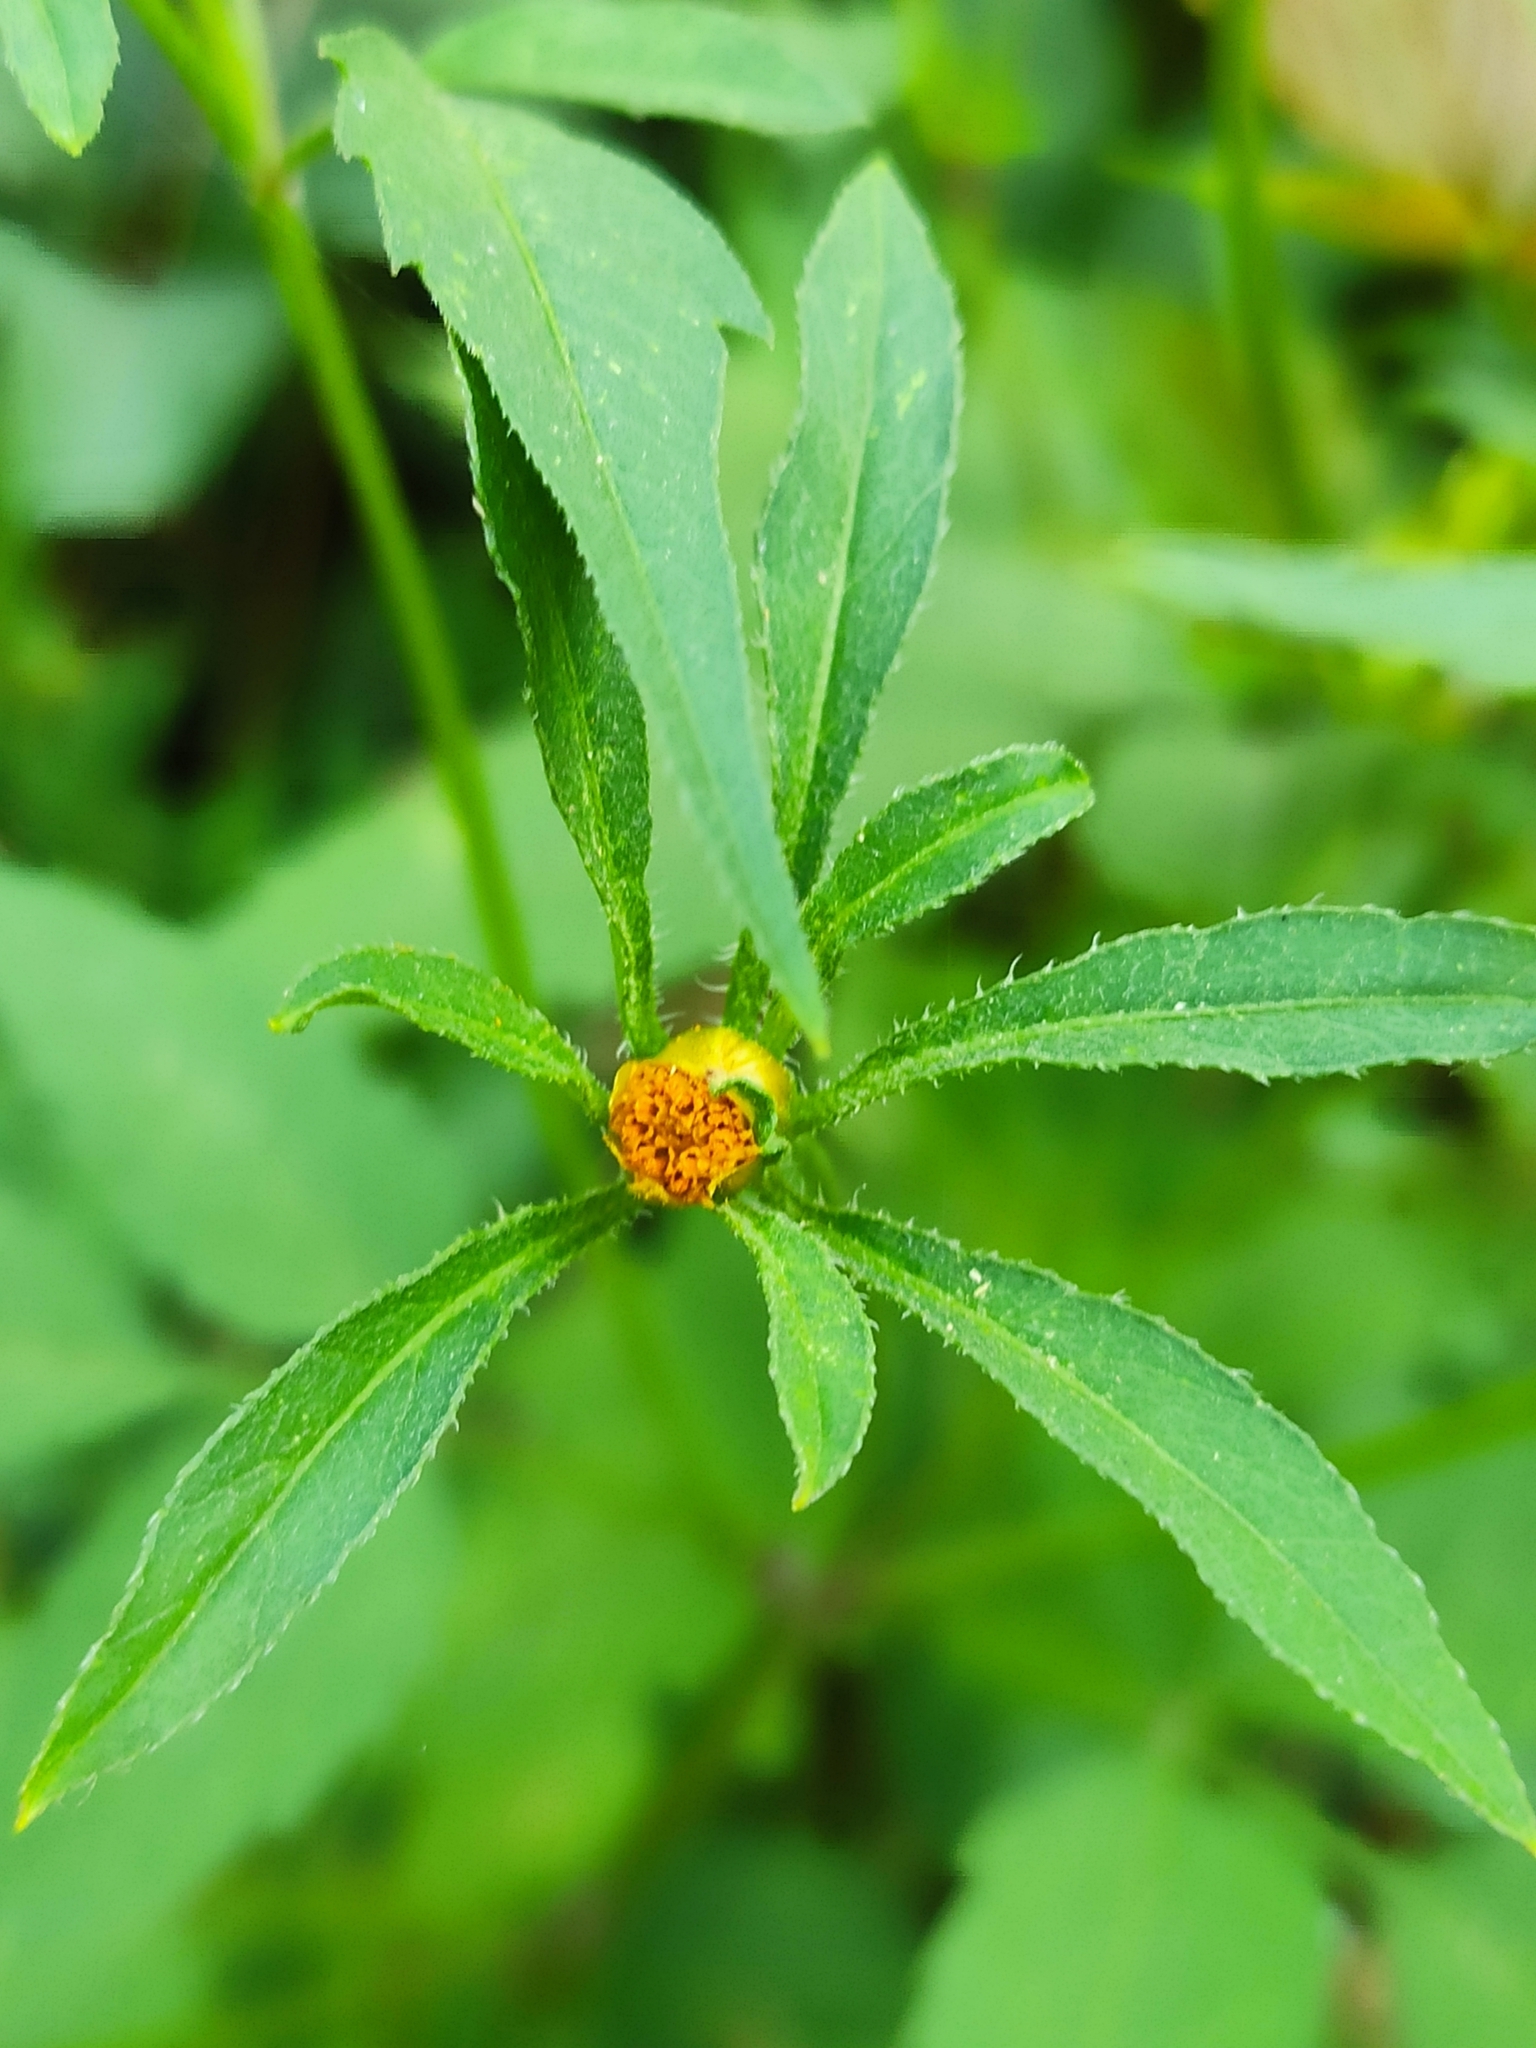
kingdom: Plantae
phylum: Tracheophyta
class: Magnoliopsida
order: Asterales
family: Asteraceae
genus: Bidens
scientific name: Bidens frondosa
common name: Beggarticks
